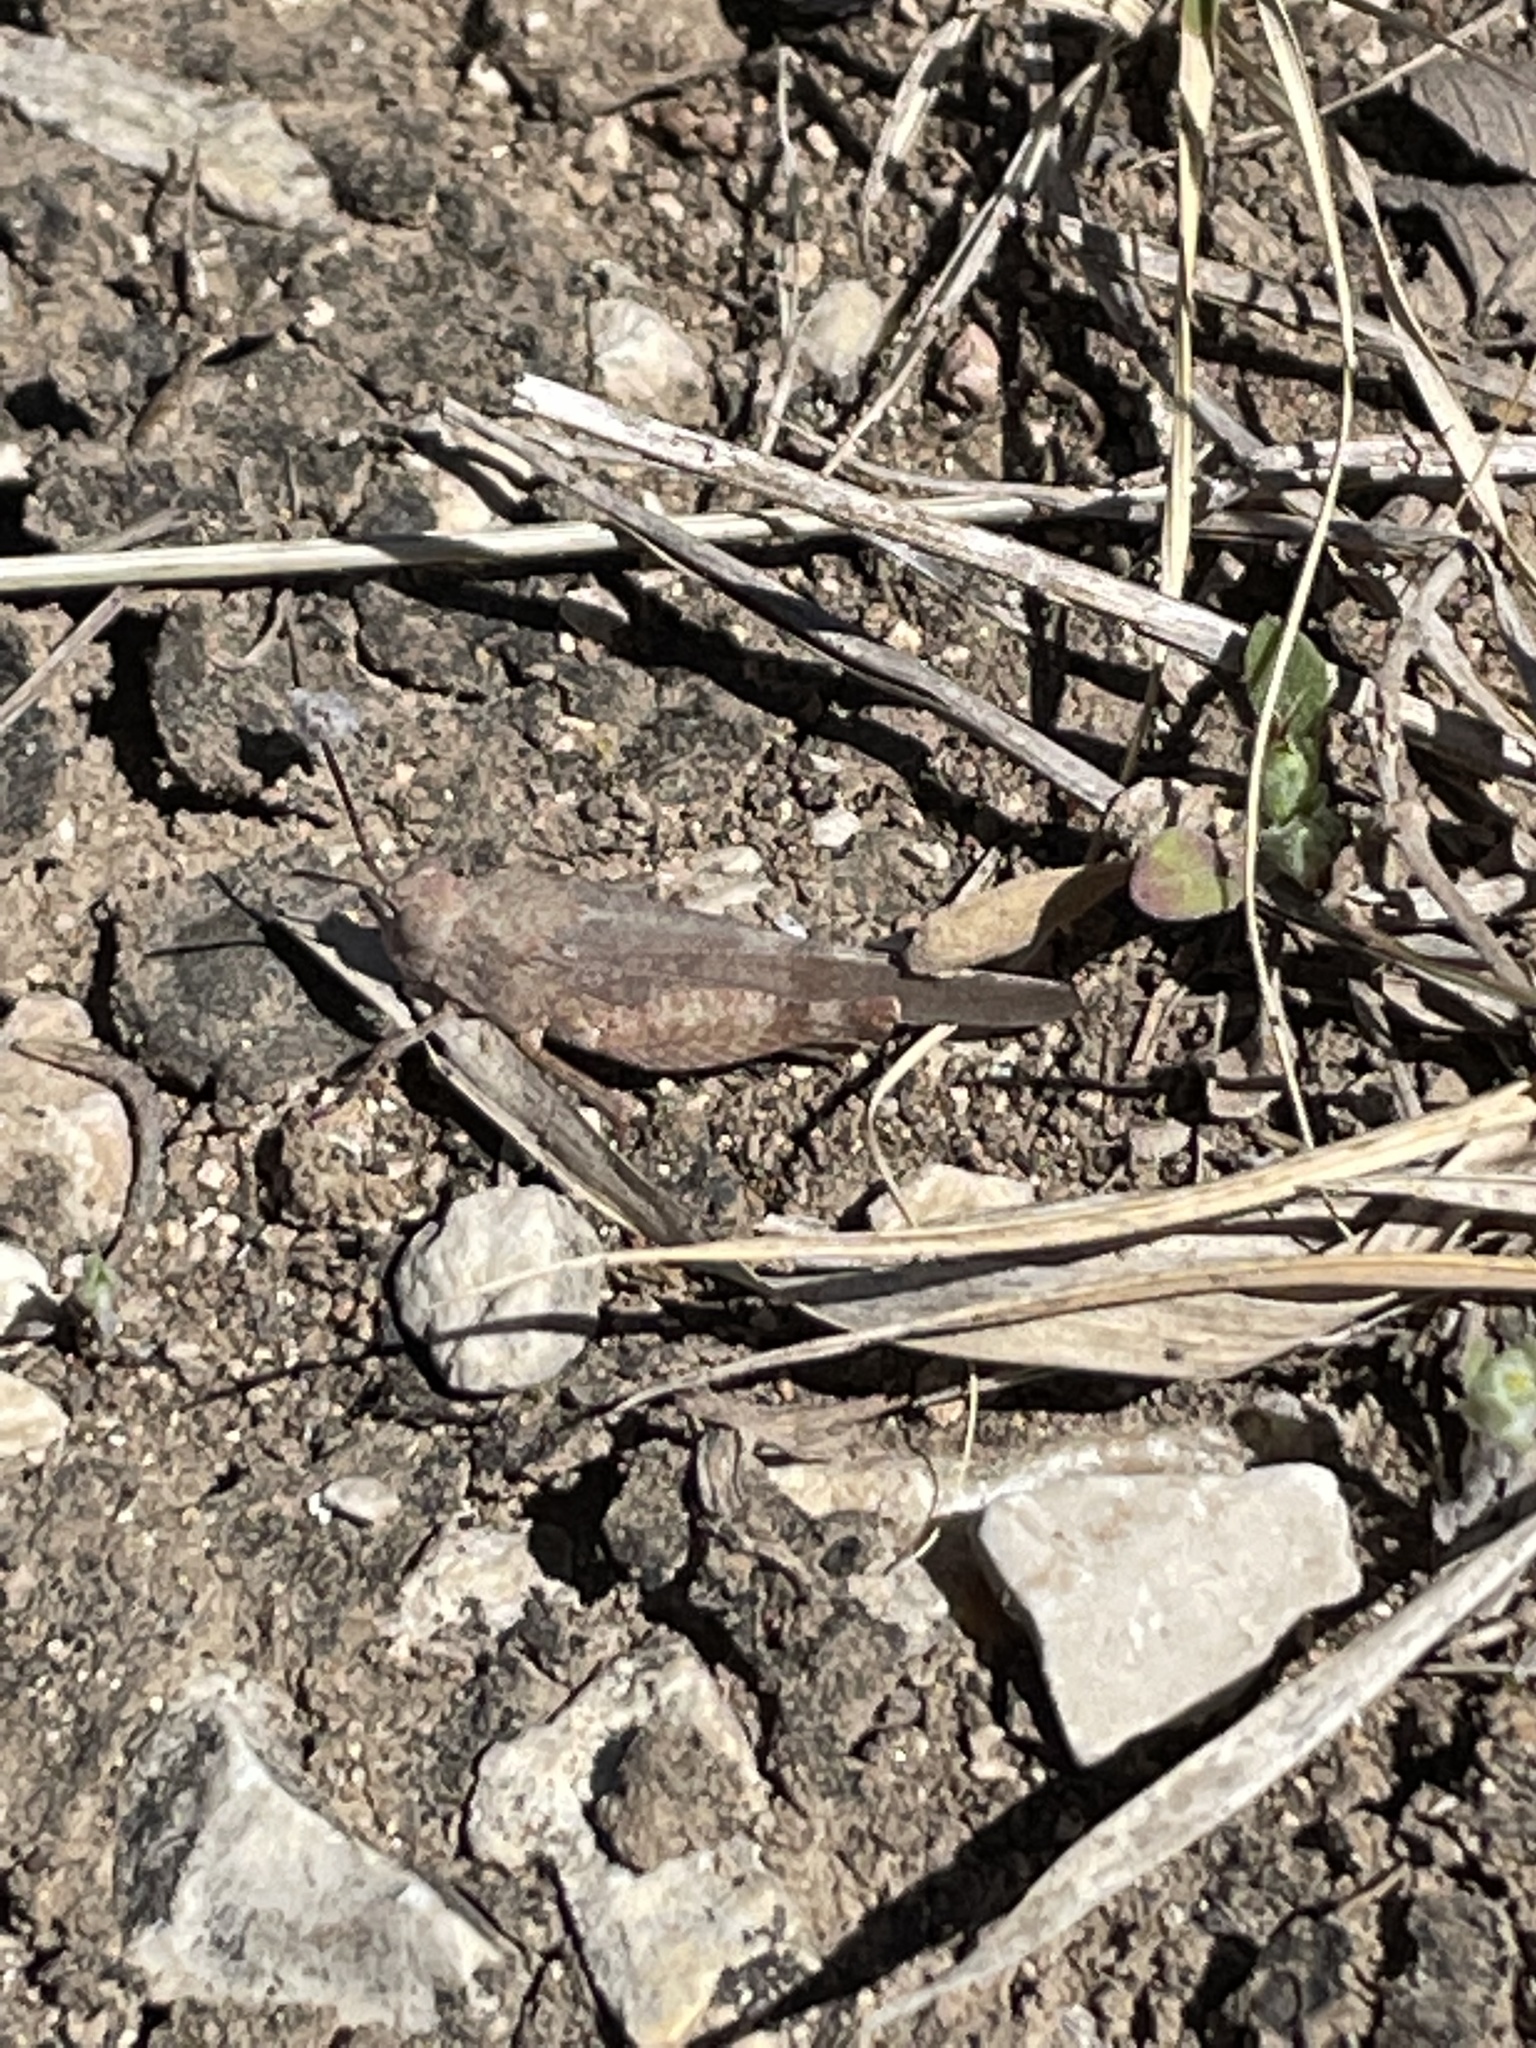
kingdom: Animalia
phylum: Arthropoda
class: Insecta
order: Orthoptera
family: Acrididae
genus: Lactista
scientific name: Lactista azteca
